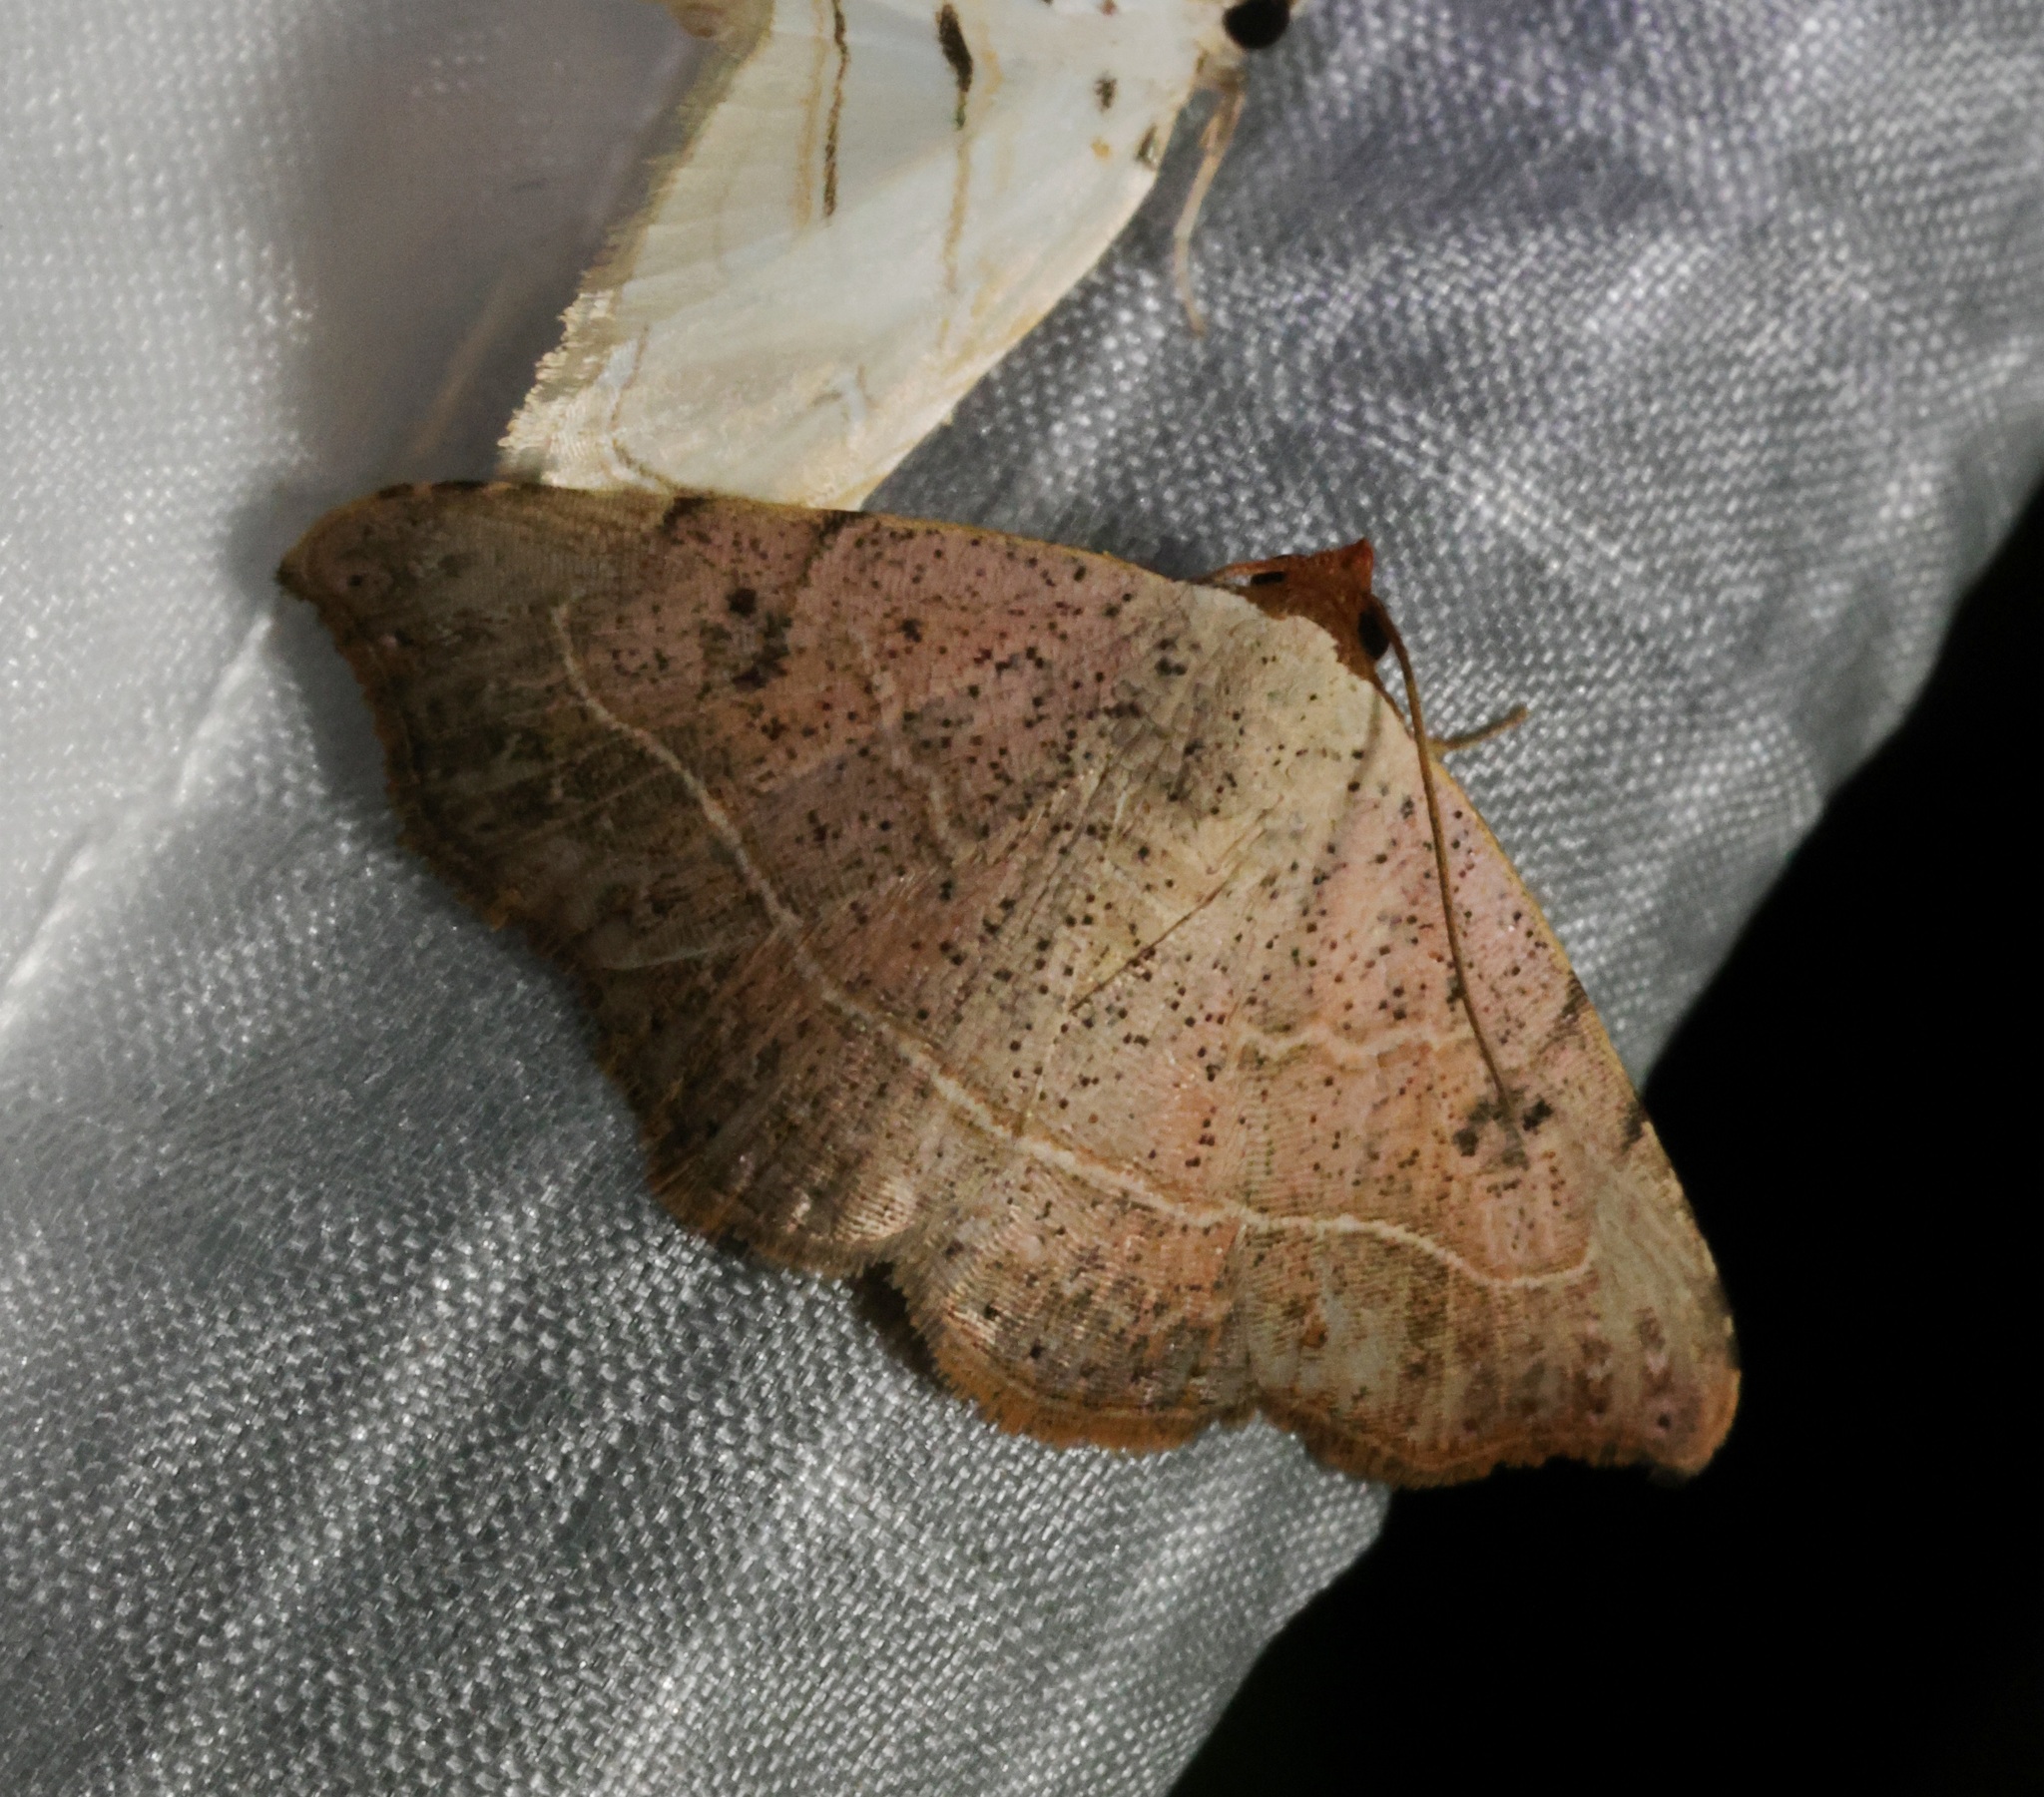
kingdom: Animalia
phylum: Arthropoda
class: Insecta
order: Lepidoptera
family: Erebidae
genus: Laspeyria
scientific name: Laspeyria ruficeps
